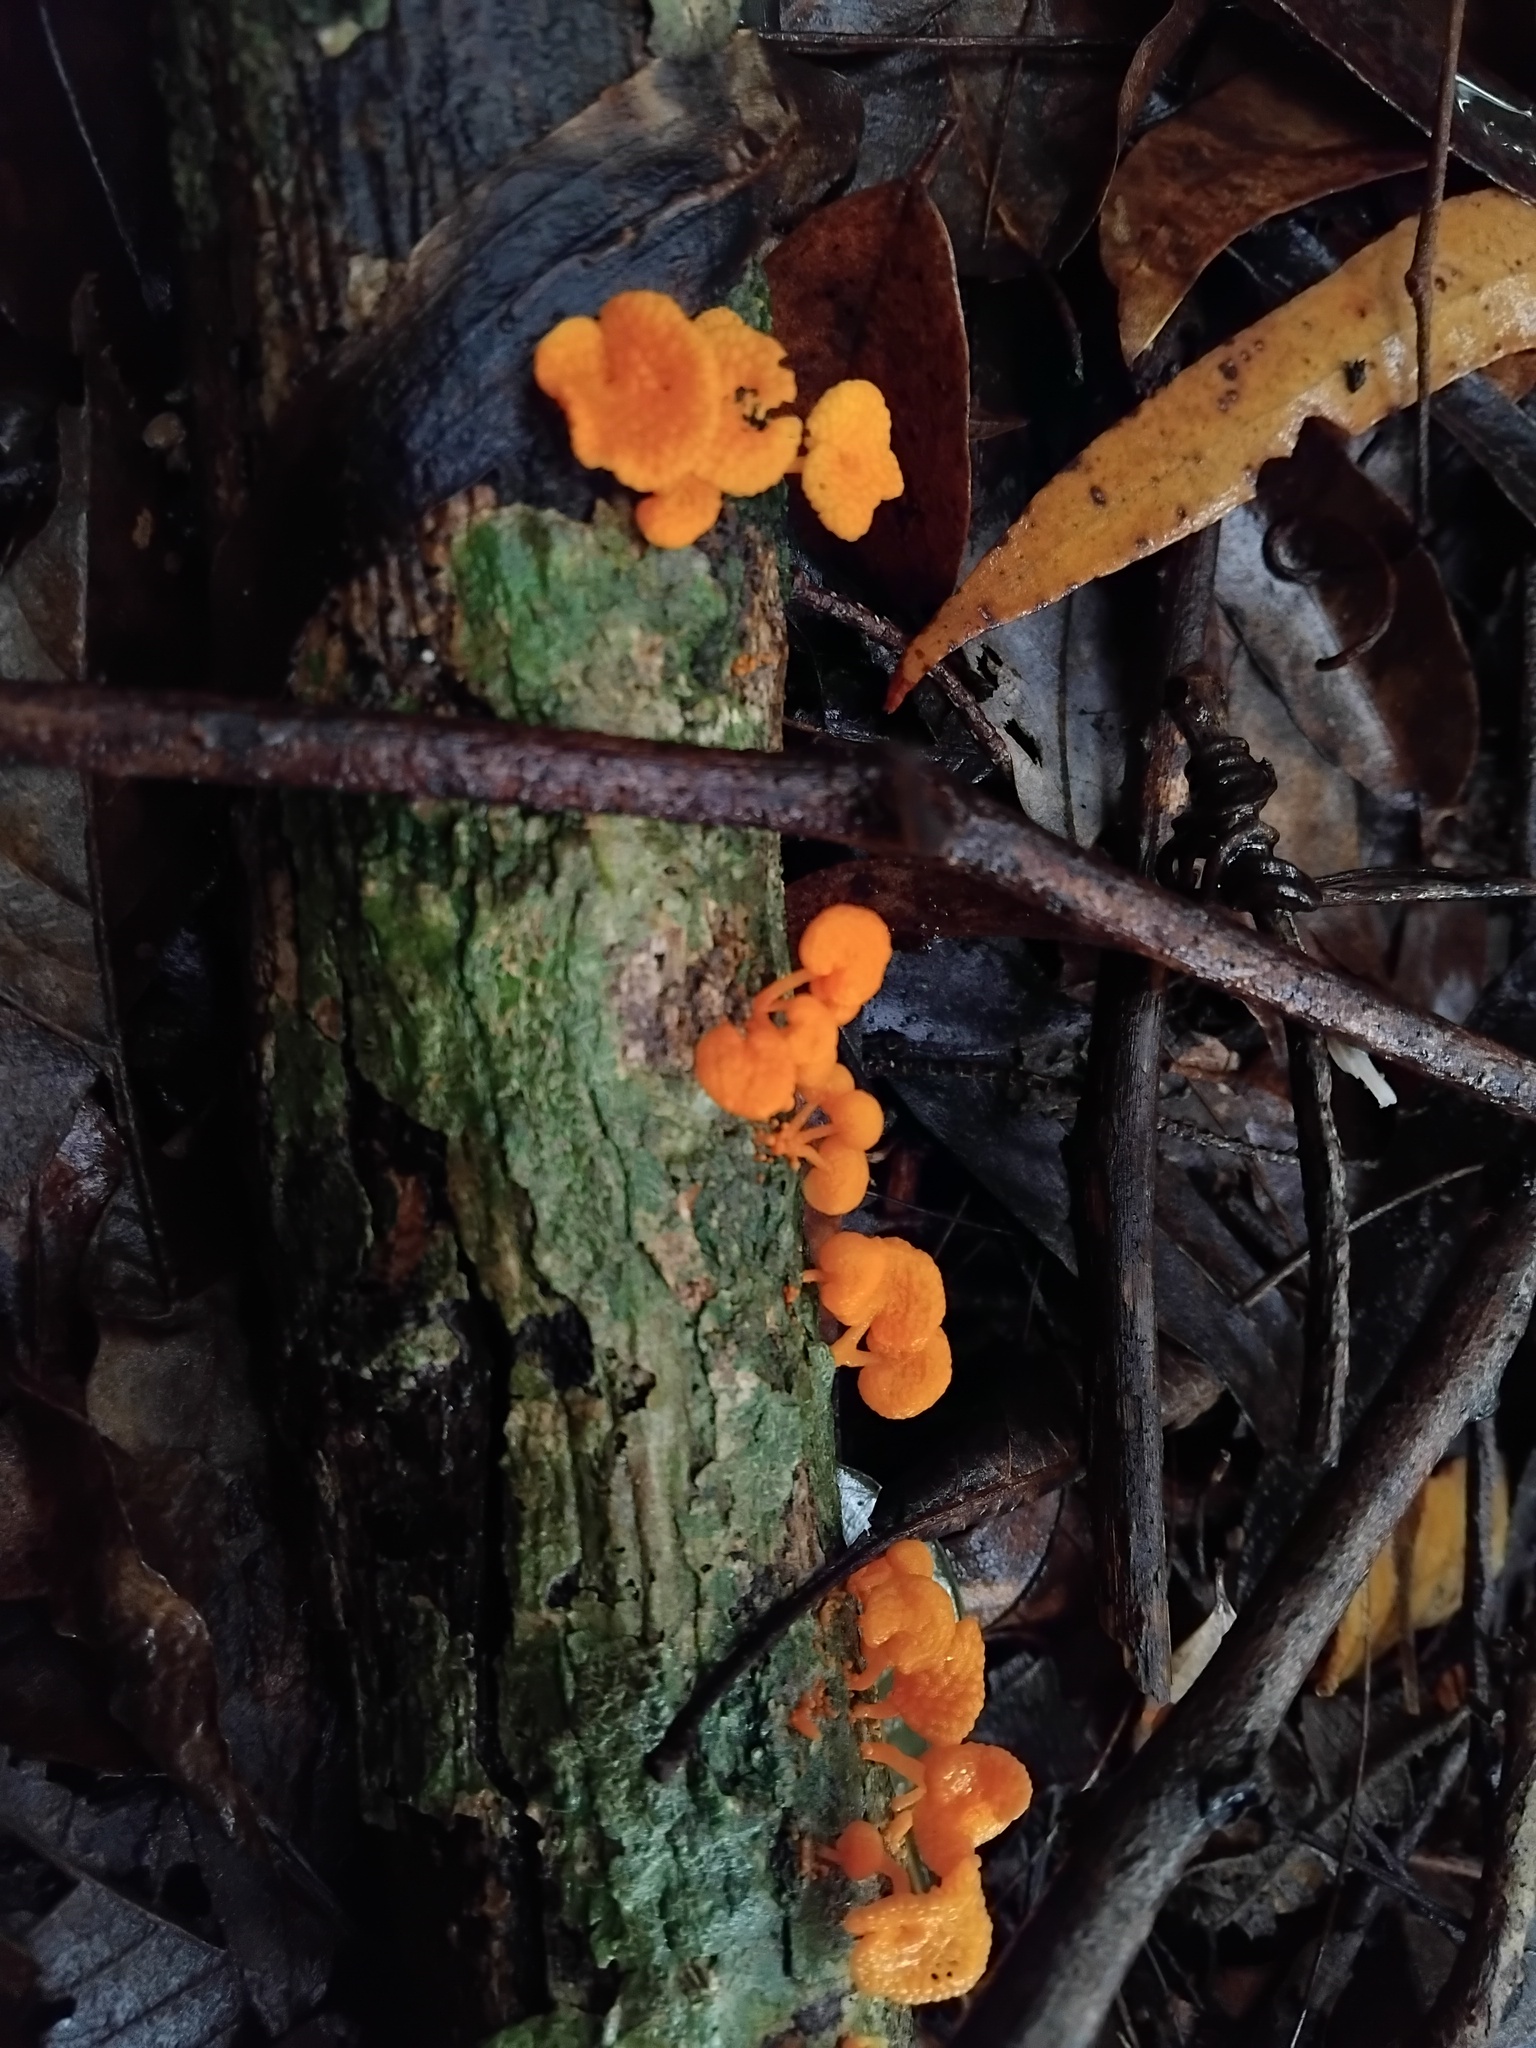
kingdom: Fungi
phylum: Basidiomycota
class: Agaricomycetes
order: Agaricales
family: Mycenaceae
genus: Favolaschia
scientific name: Favolaschia claudopus
